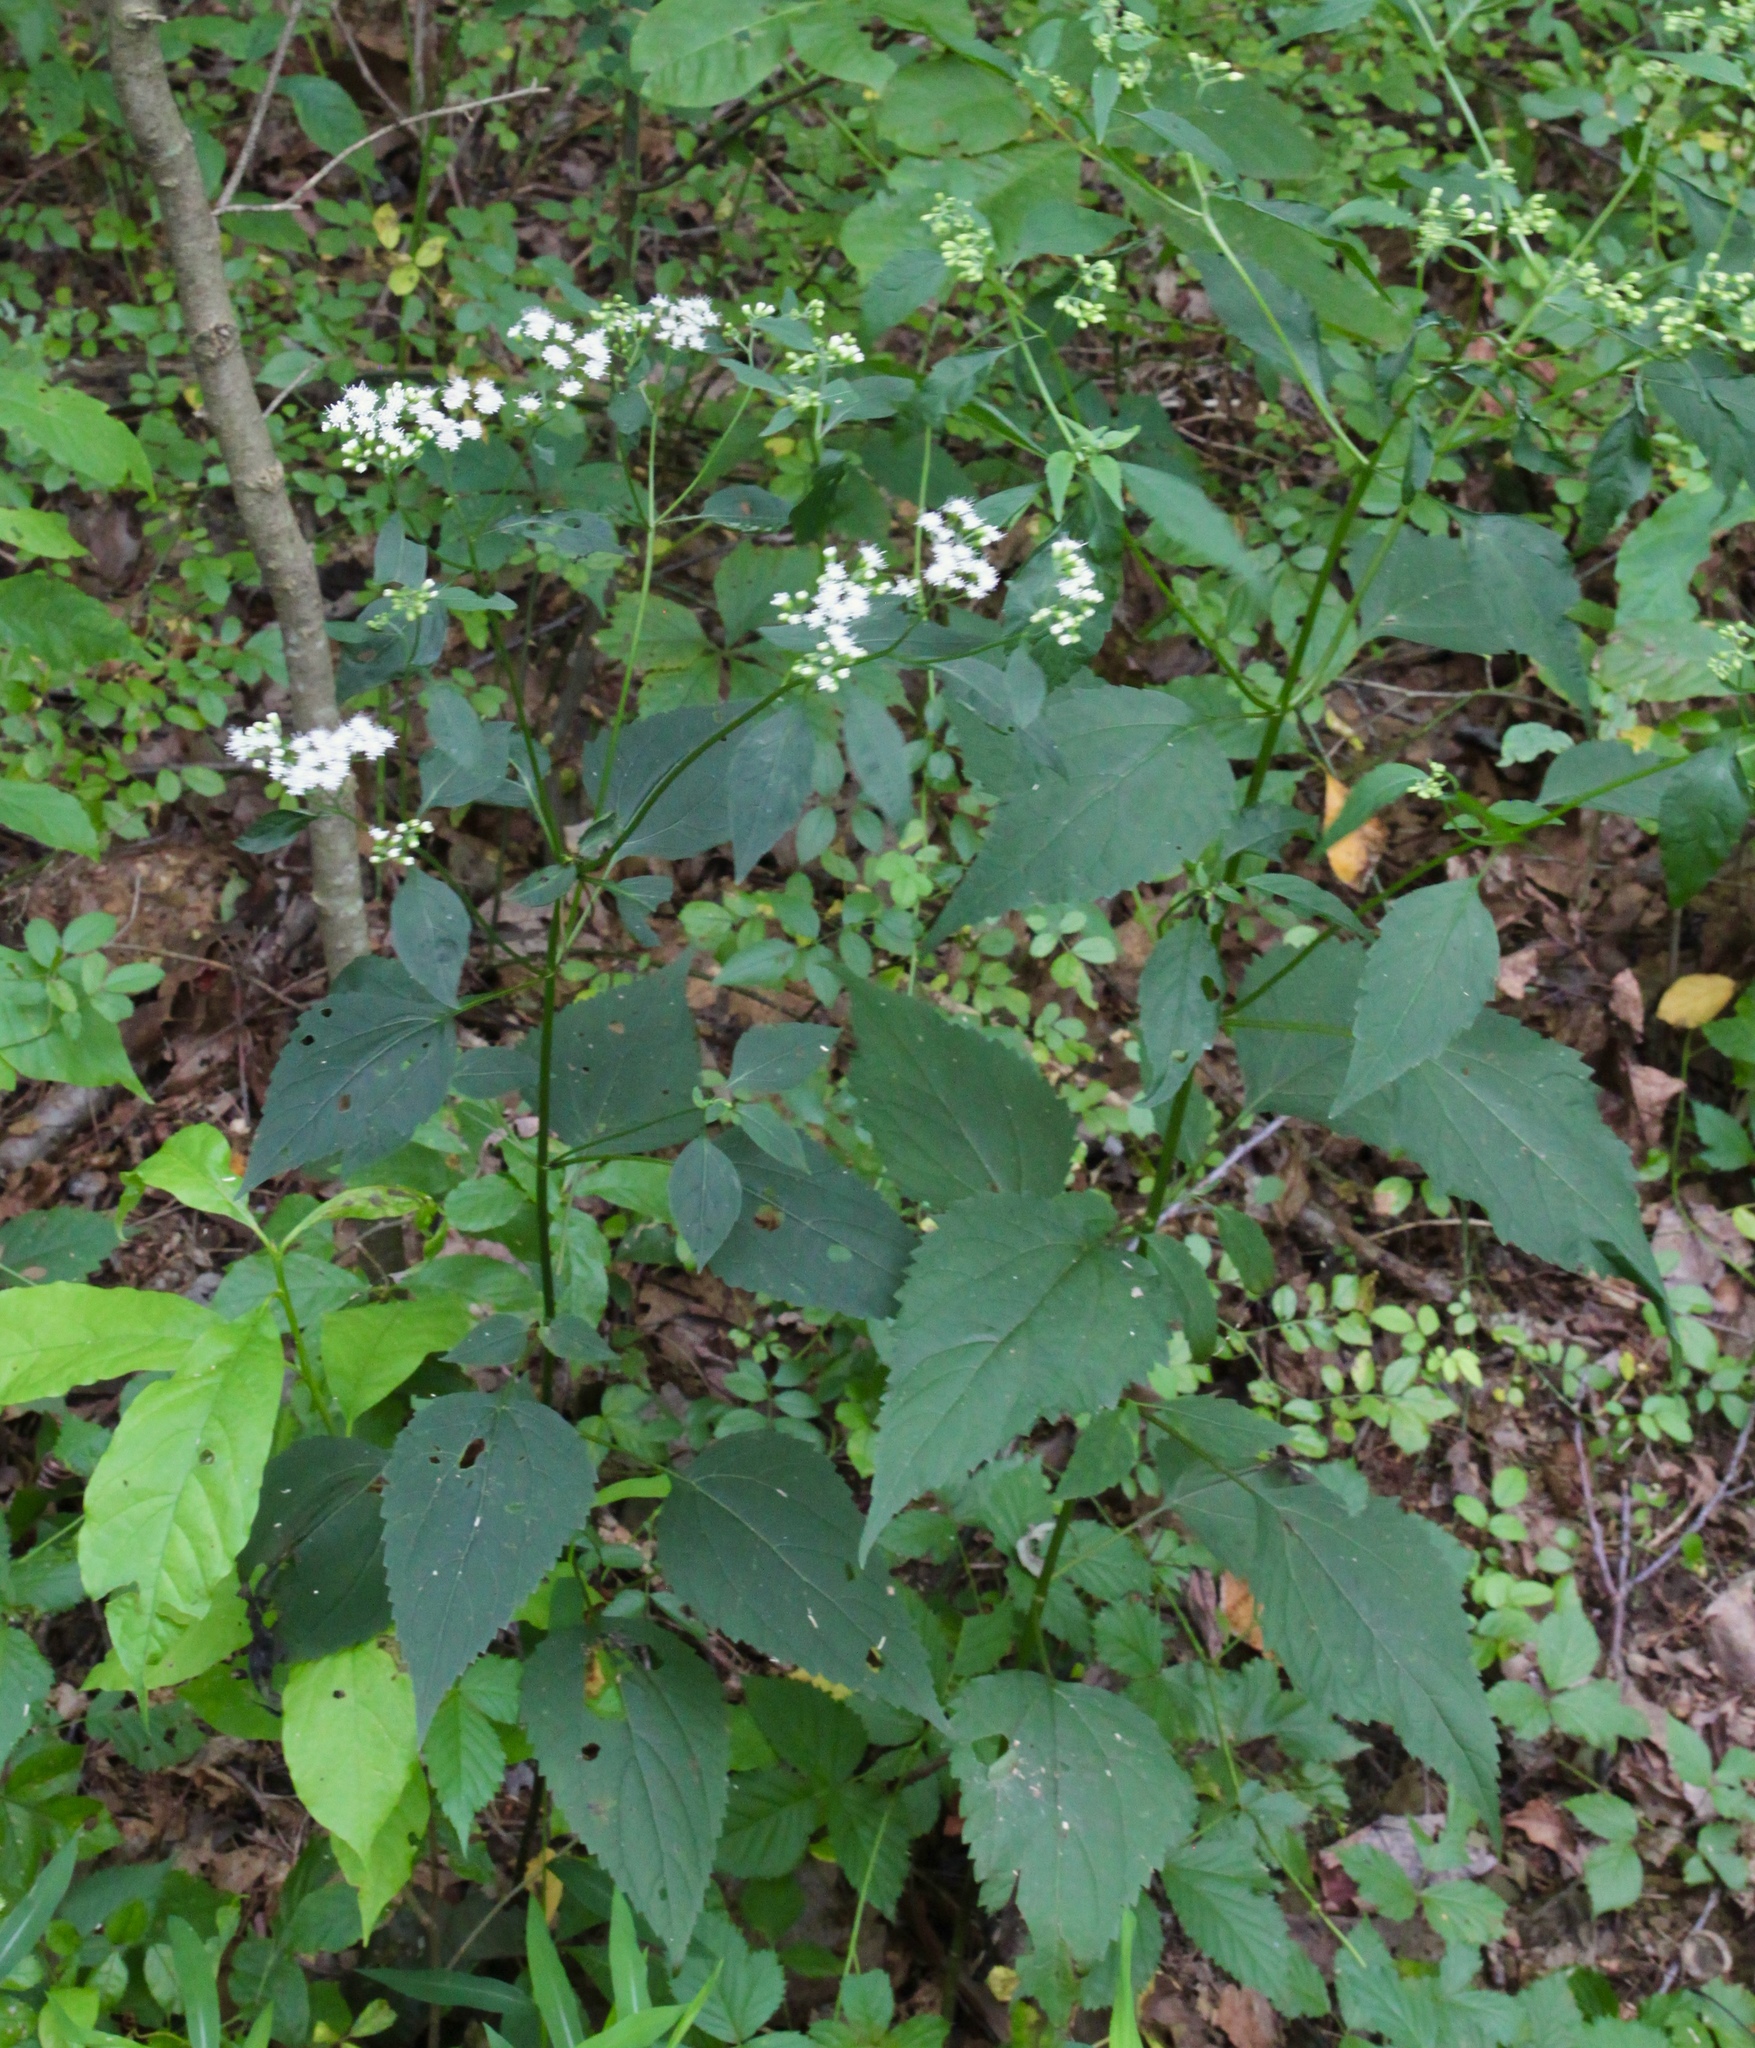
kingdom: Plantae
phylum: Tracheophyta
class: Magnoliopsida
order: Asterales
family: Asteraceae
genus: Ageratina
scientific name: Ageratina altissima
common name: White snakeroot
